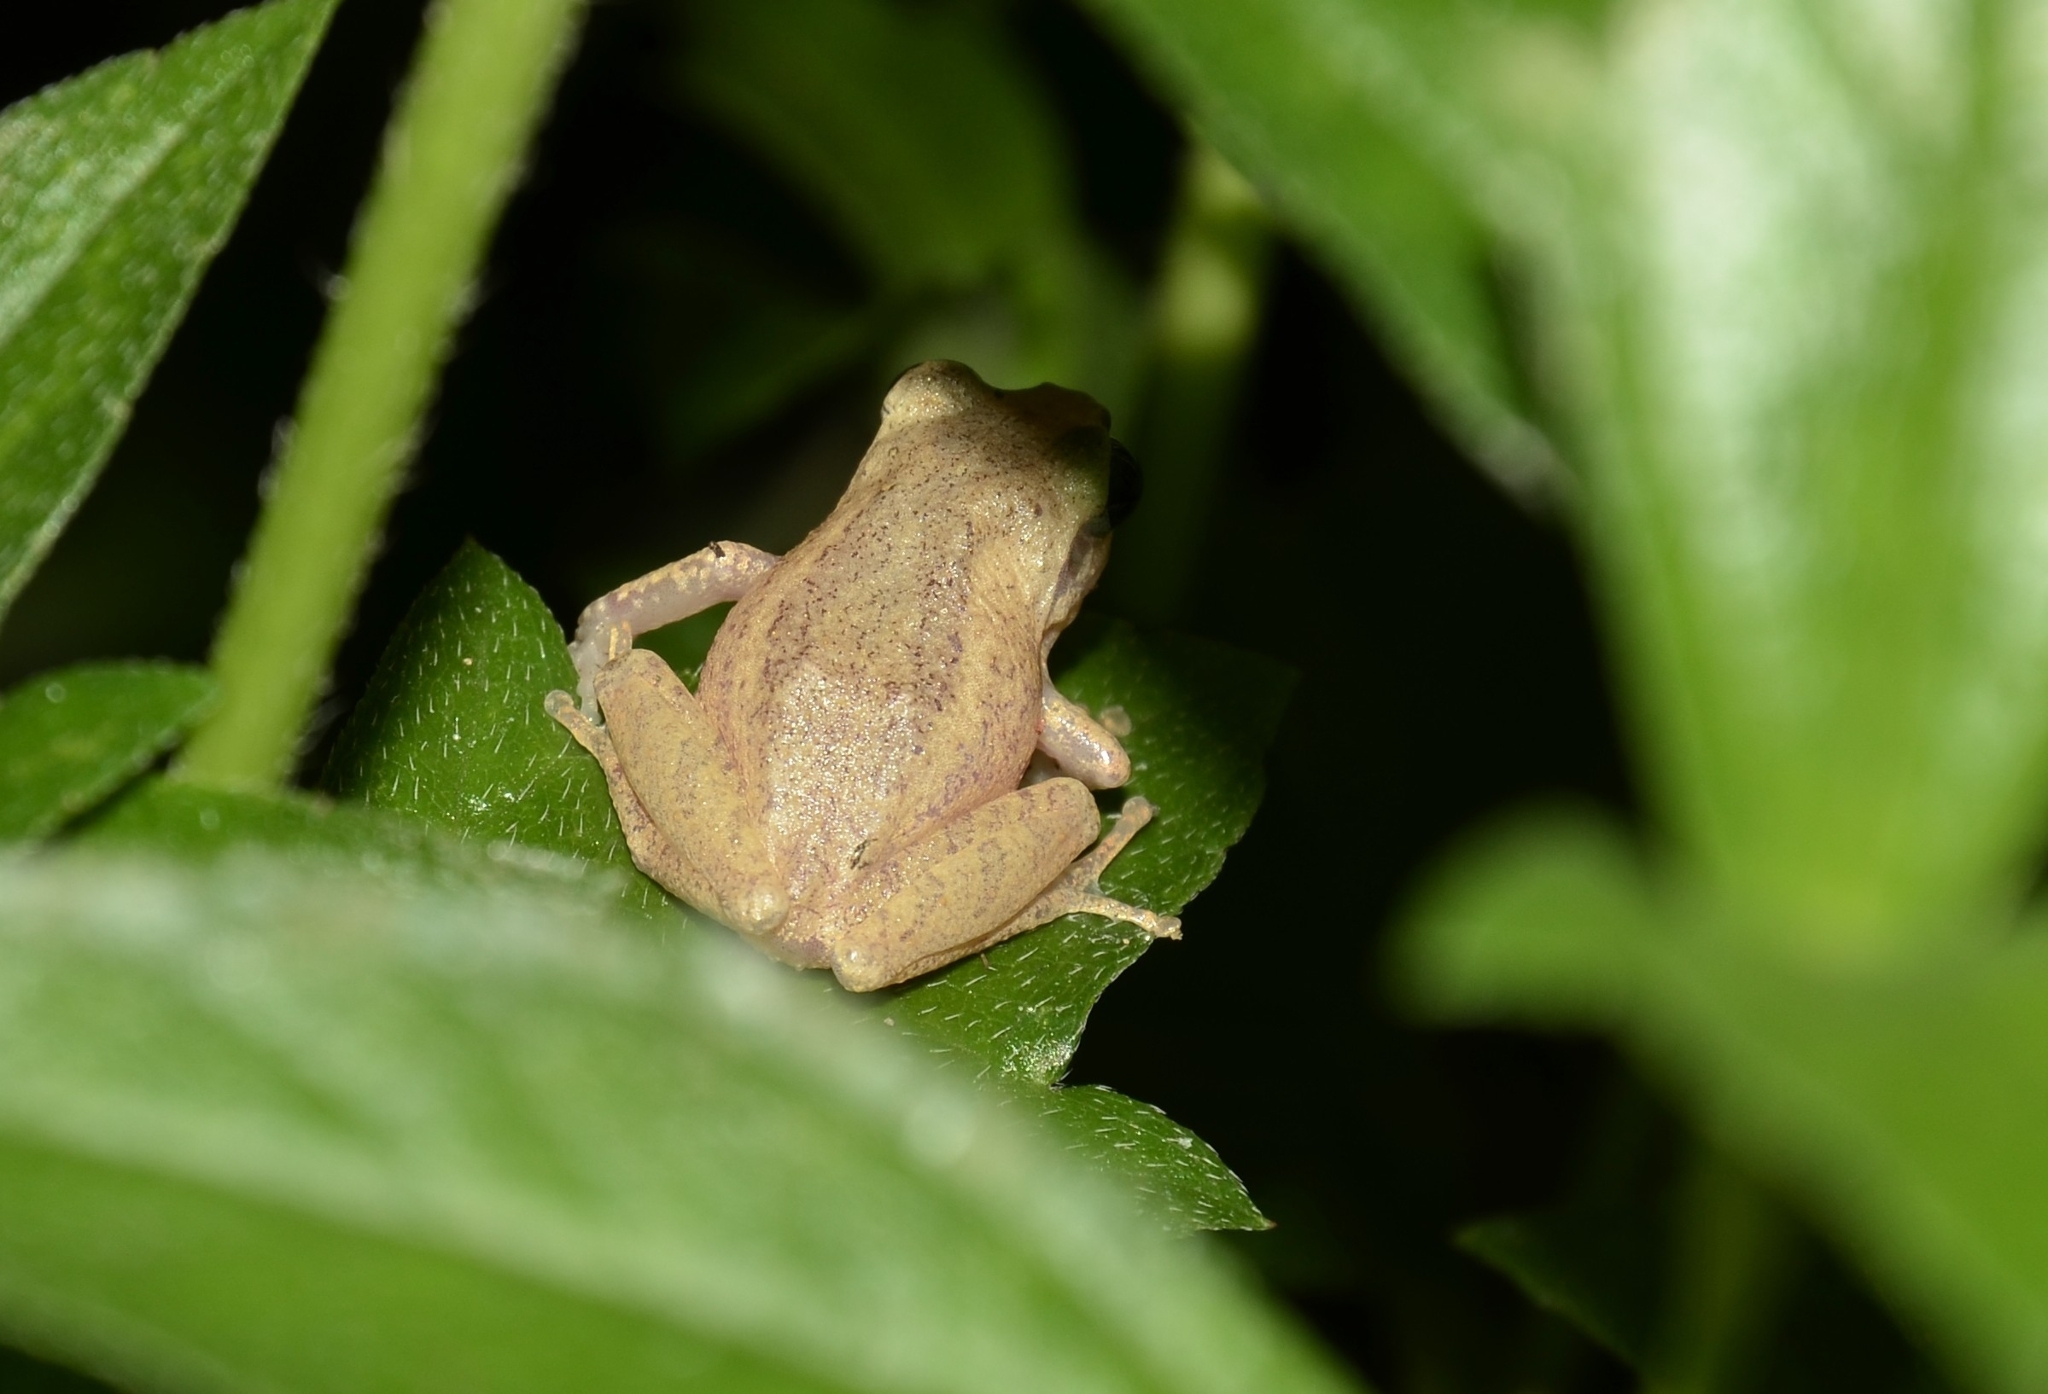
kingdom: Animalia
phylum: Chordata
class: Amphibia
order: Anura
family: Rhacophoridae
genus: Pseudophilautus
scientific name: Pseudophilautus wynaadensis
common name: Dark-eared bush frog
